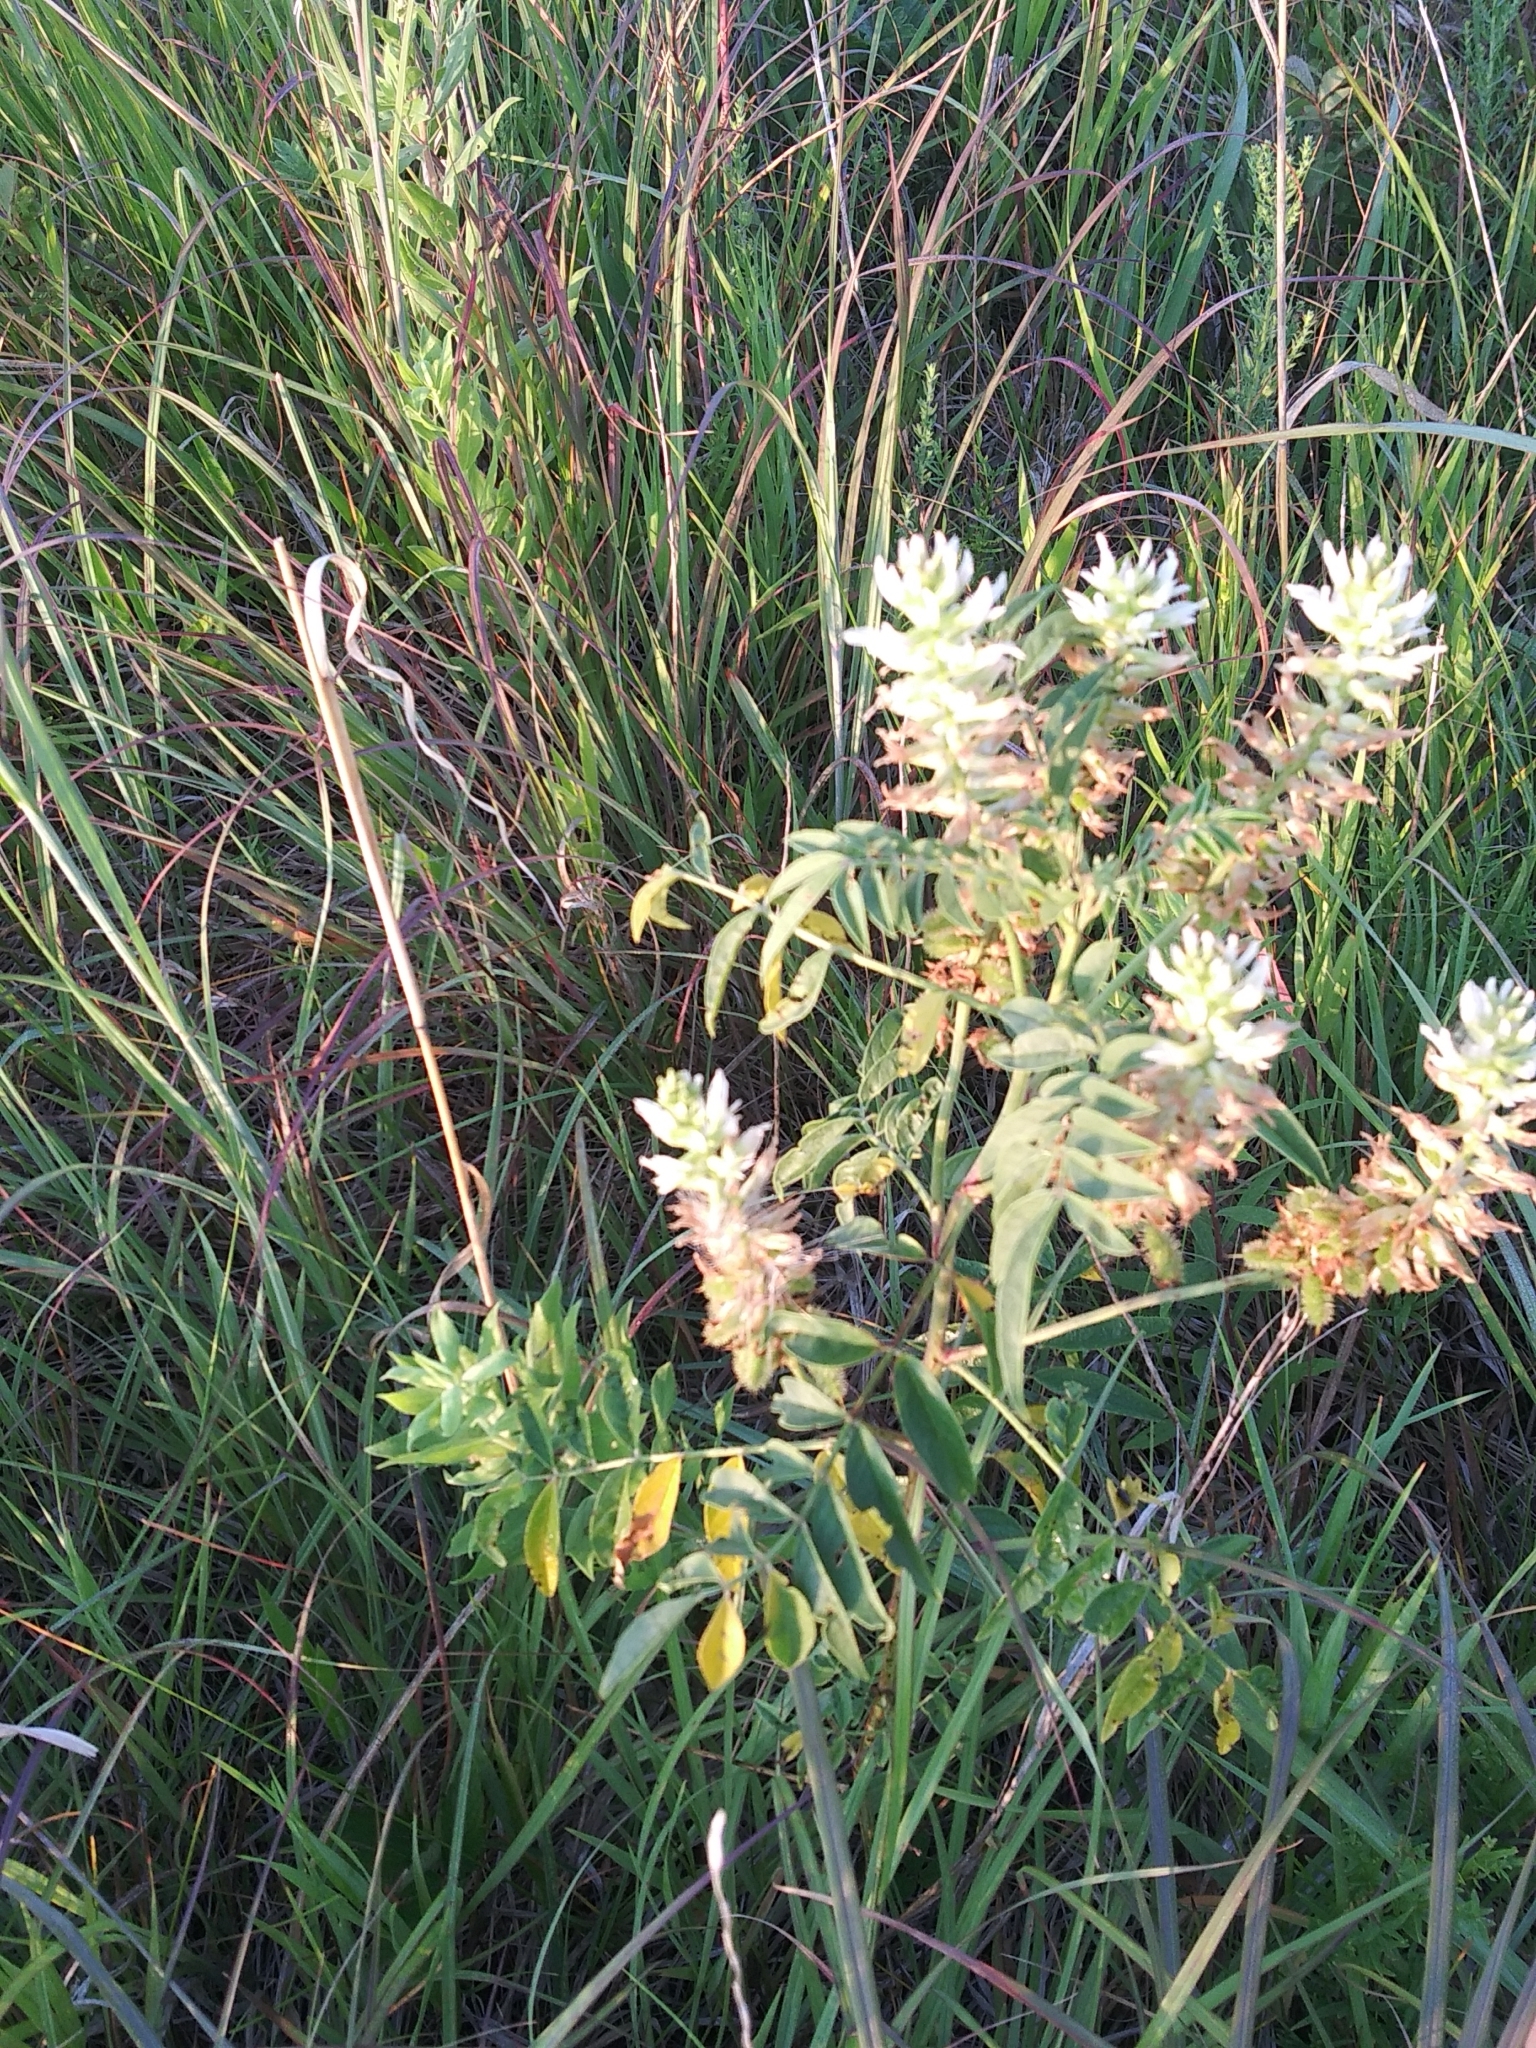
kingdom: Plantae
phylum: Tracheophyta
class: Magnoliopsida
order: Fabales
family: Fabaceae
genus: Glycyrrhiza
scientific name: Glycyrrhiza lepidota
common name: American liquorice
